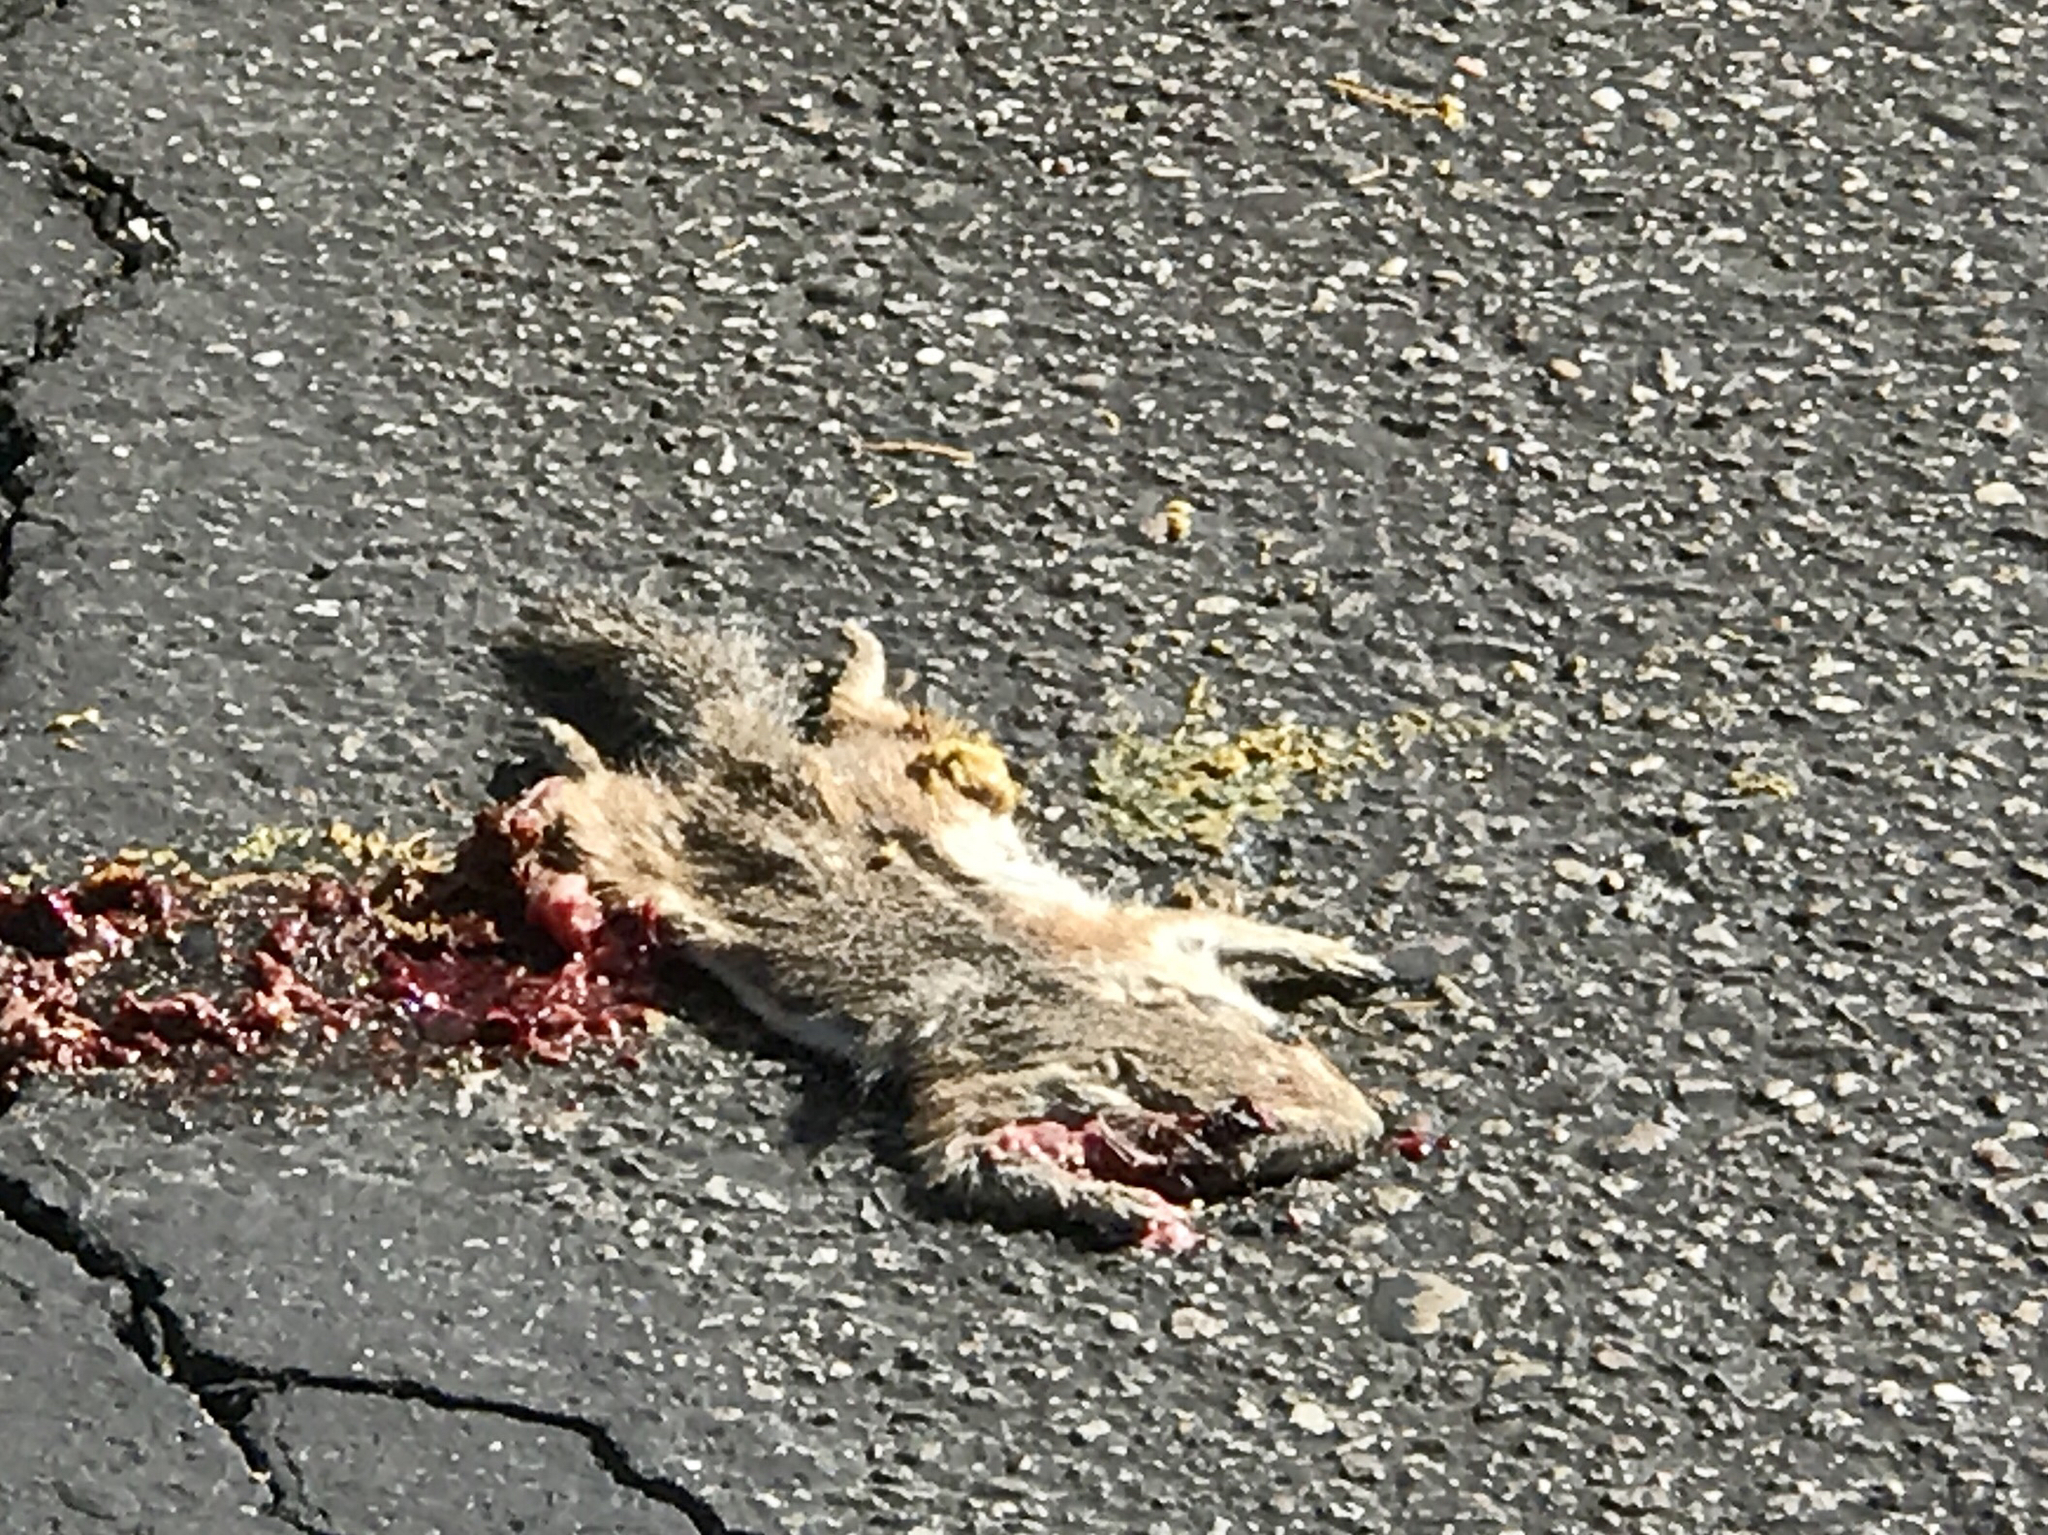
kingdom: Animalia
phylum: Chordata
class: Mammalia
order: Rodentia
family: Sciuridae
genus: Ammospermophilus
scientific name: Ammospermophilus harrisii
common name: Harris's antelope squirrel
